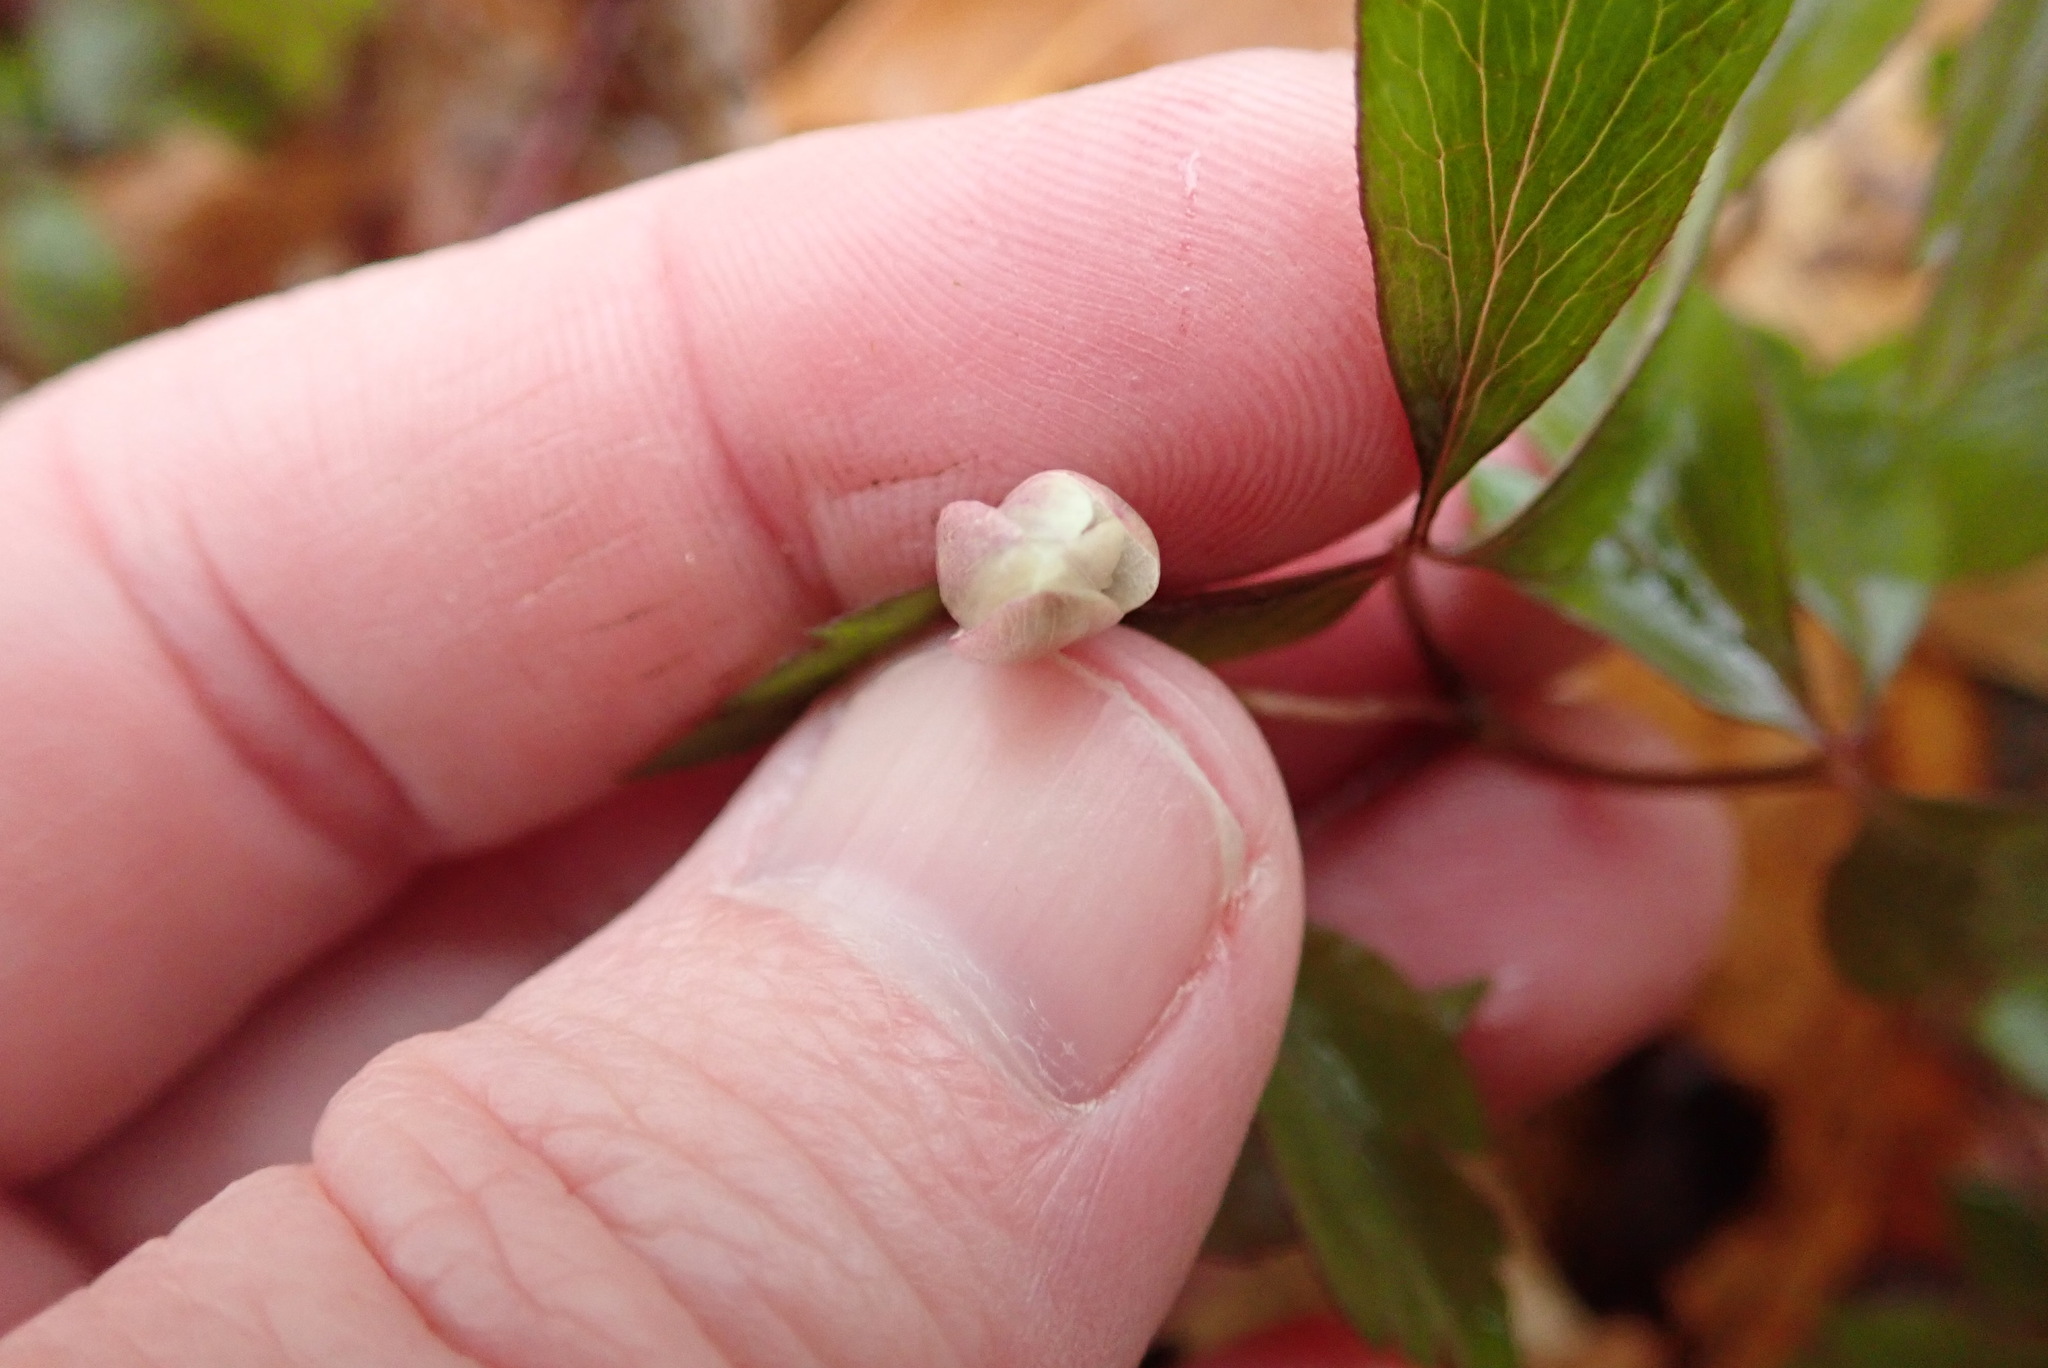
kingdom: Plantae
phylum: Tracheophyta
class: Magnoliopsida
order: Ranunculales
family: Ranunculaceae
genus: Anemone
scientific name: Anemone quinquefolia
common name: Wood anemone
